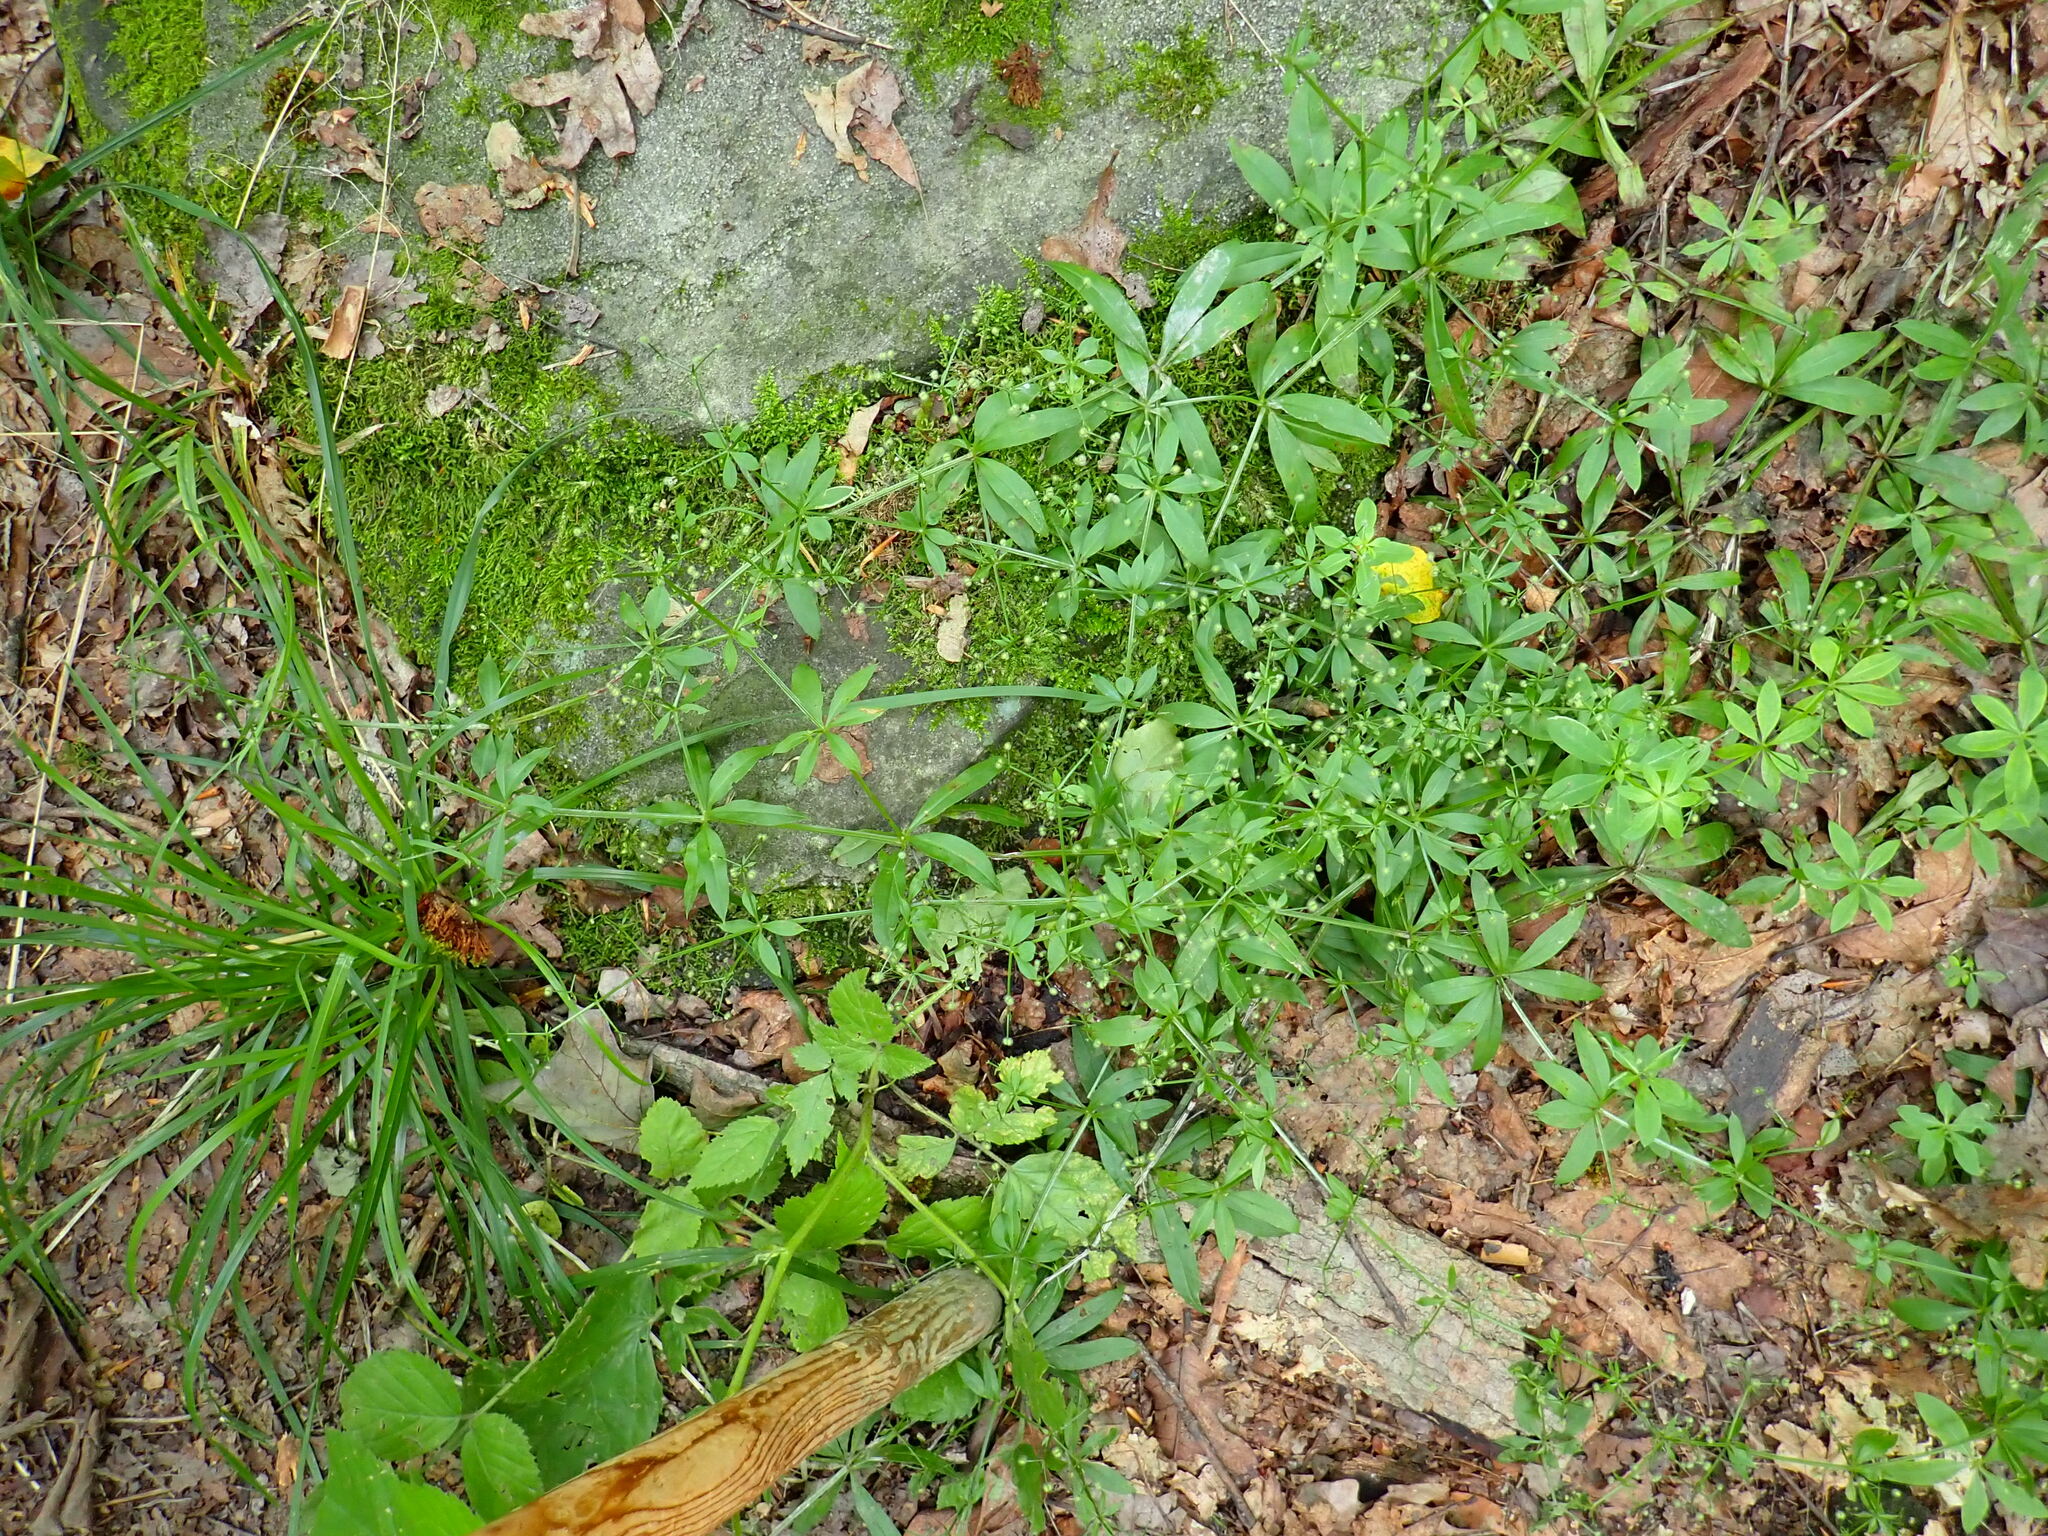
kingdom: Plantae
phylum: Tracheophyta
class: Magnoliopsida
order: Gentianales
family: Rubiaceae
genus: Galium
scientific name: Galium triflorum
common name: Fragrant bedstraw
